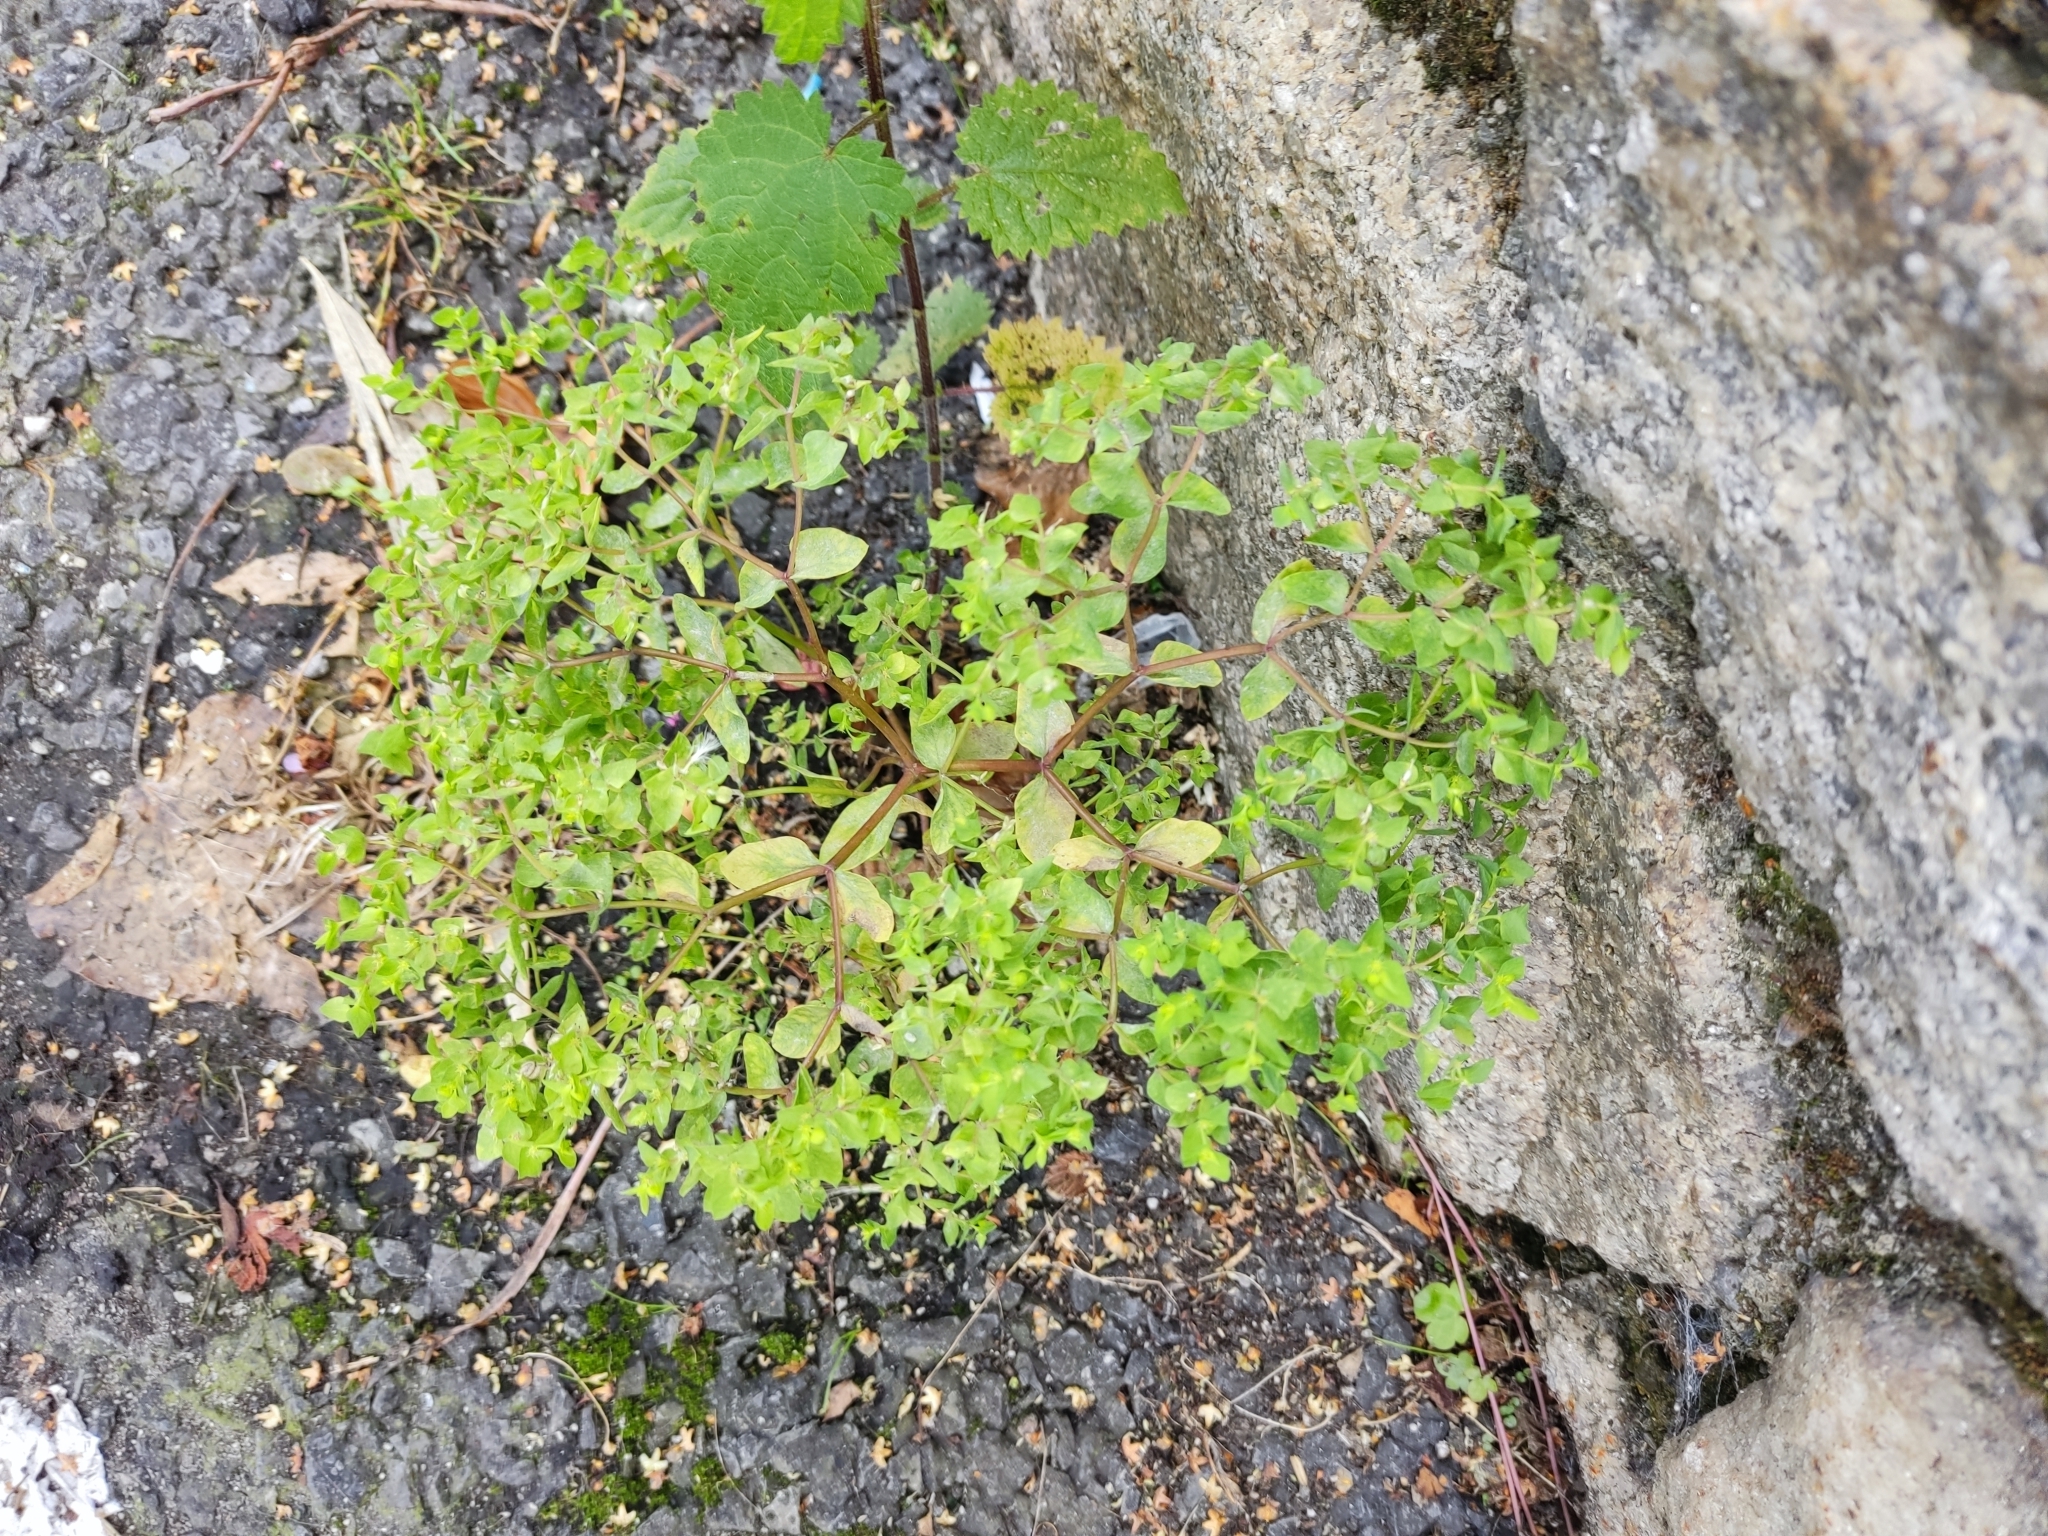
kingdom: Plantae
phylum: Tracheophyta
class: Magnoliopsida
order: Malpighiales
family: Euphorbiaceae
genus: Euphorbia
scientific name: Euphorbia peplus
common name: Petty spurge
